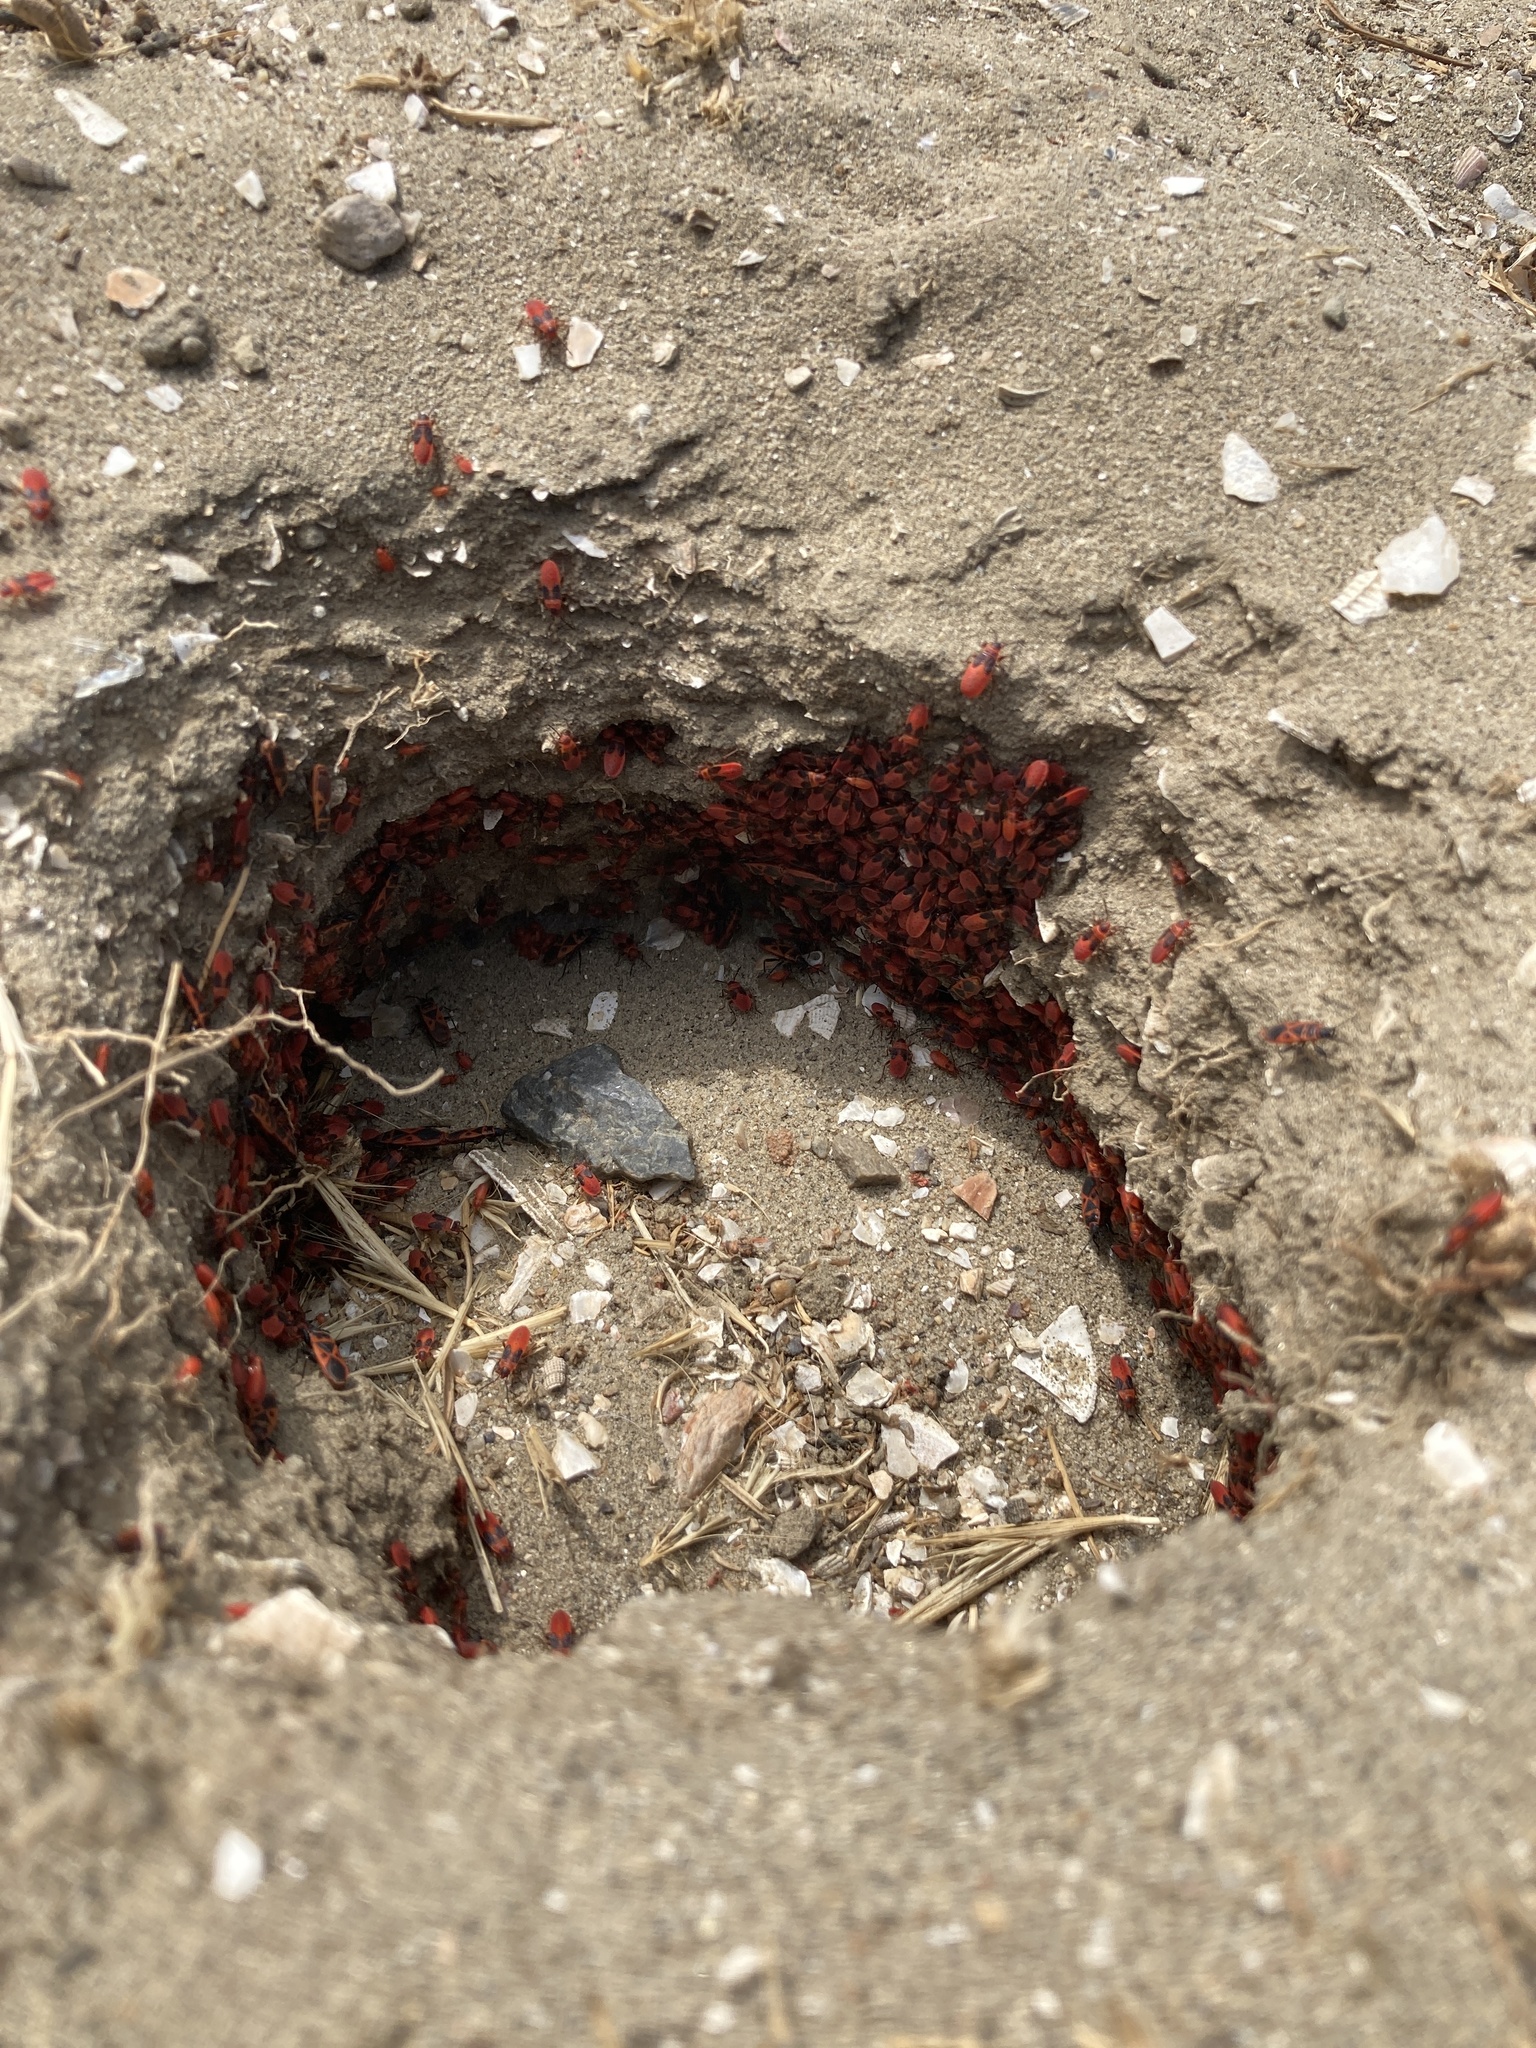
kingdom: Animalia
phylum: Arthropoda
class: Insecta
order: Hemiptera
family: Pyrrhocoridae
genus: Scantius
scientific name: Scantius aegyptius
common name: Red bug
